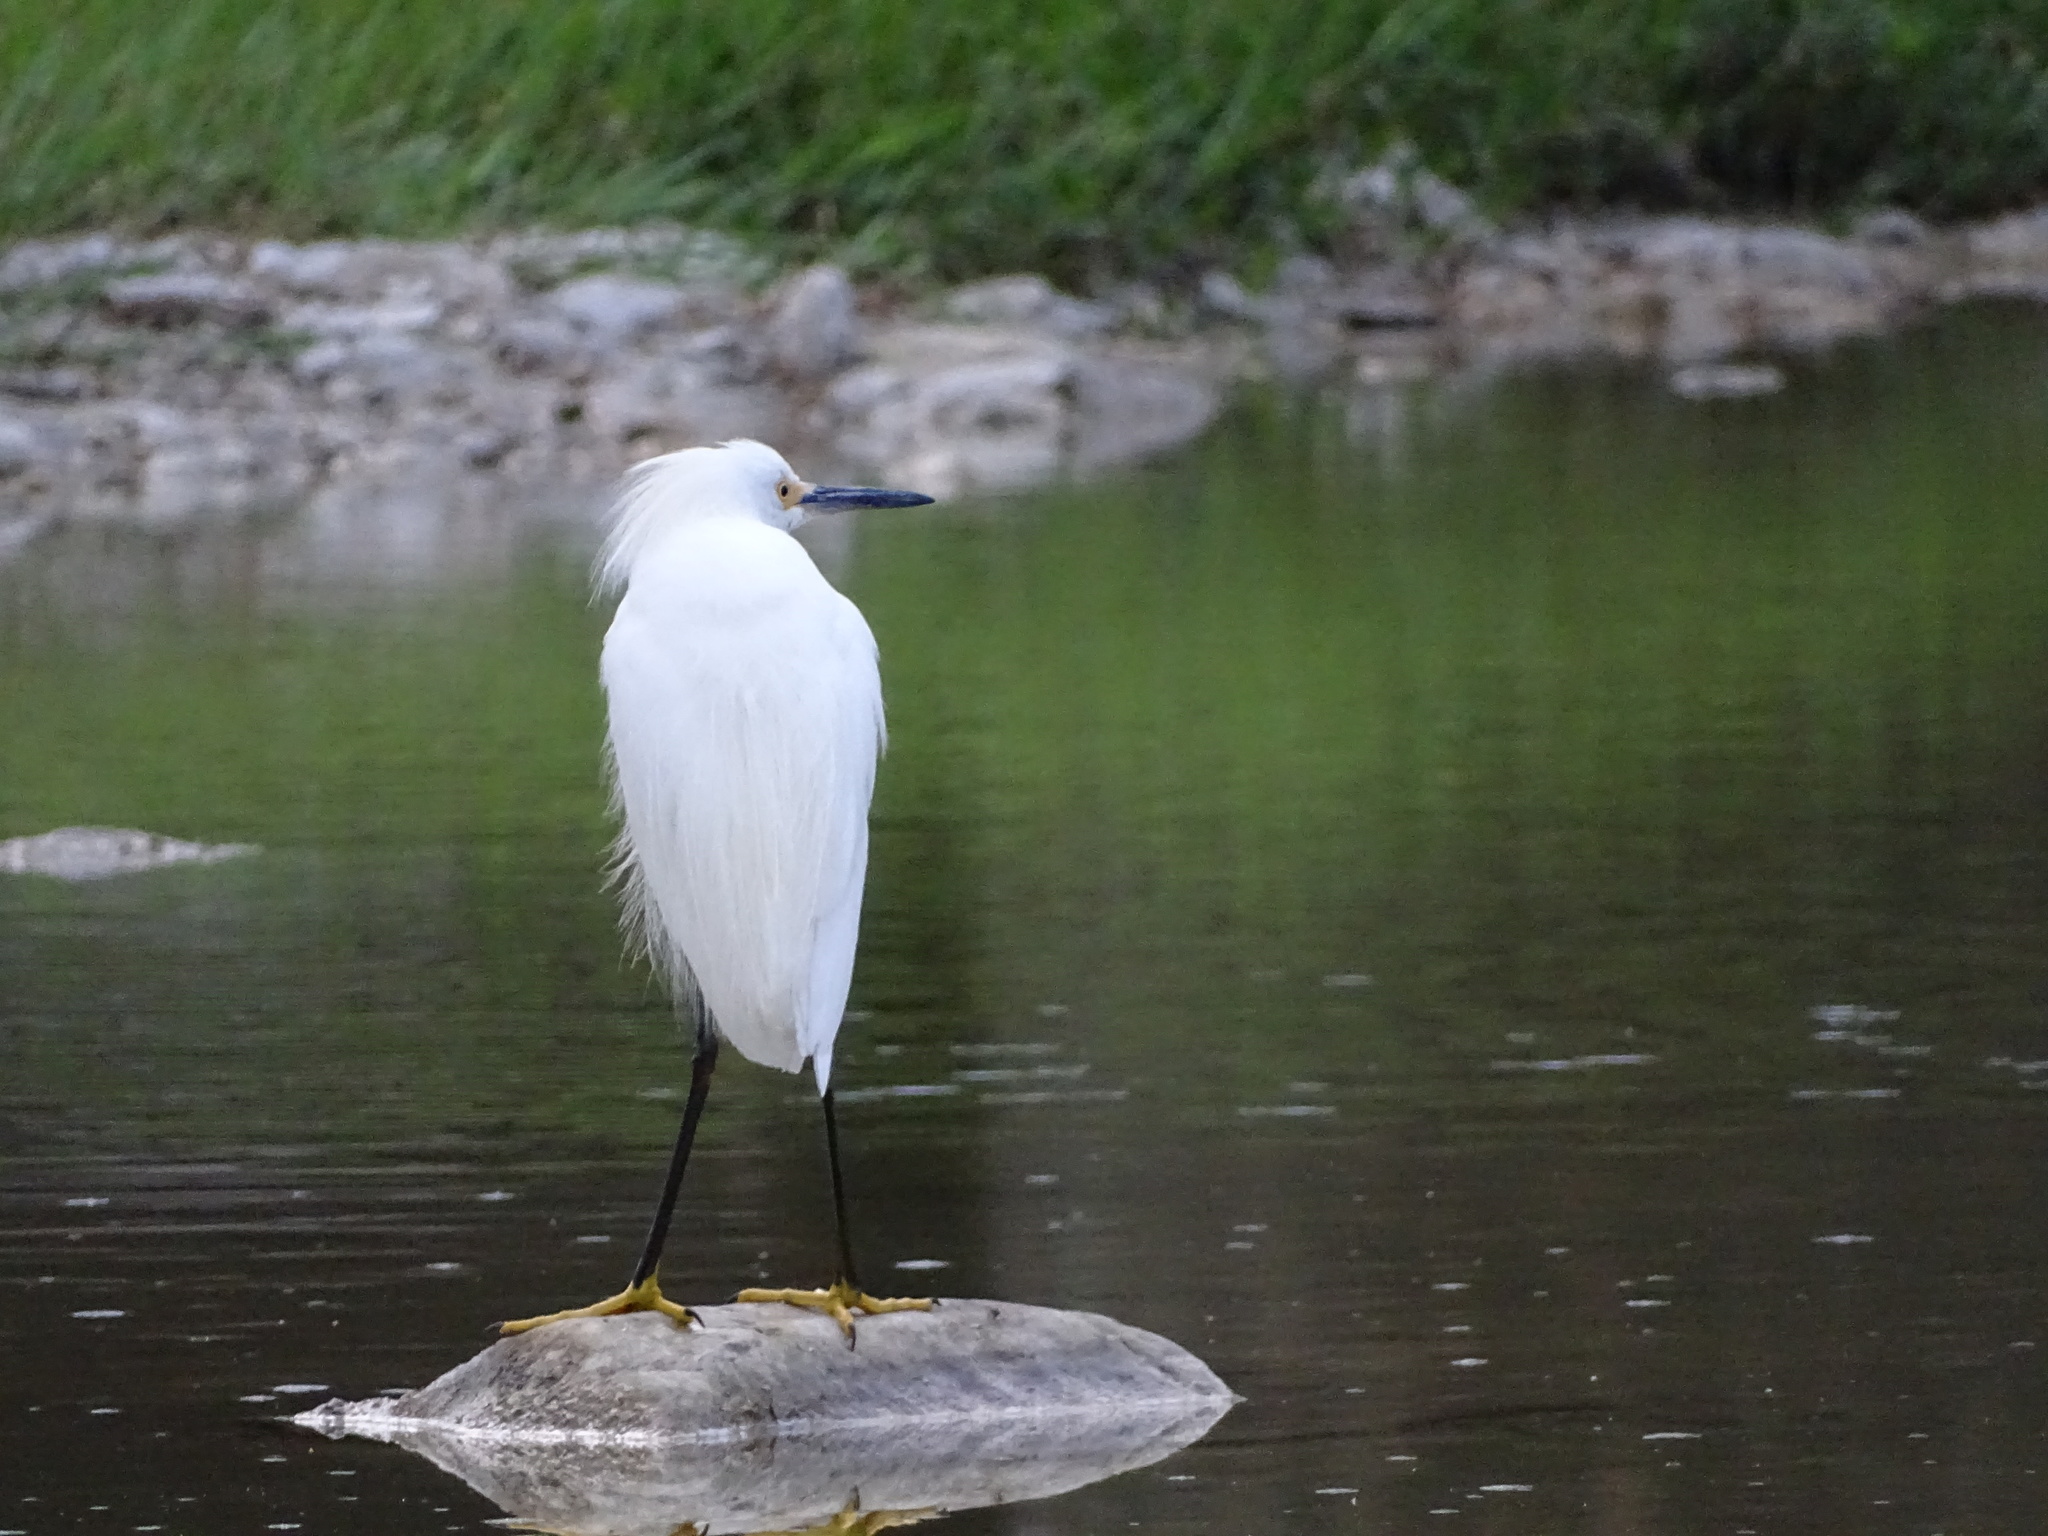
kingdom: Animalia
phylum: Chordata
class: Aves
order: Pelecaniformes
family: Ardeidae
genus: Egretta
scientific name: Egretta thula
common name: Snowy egret
